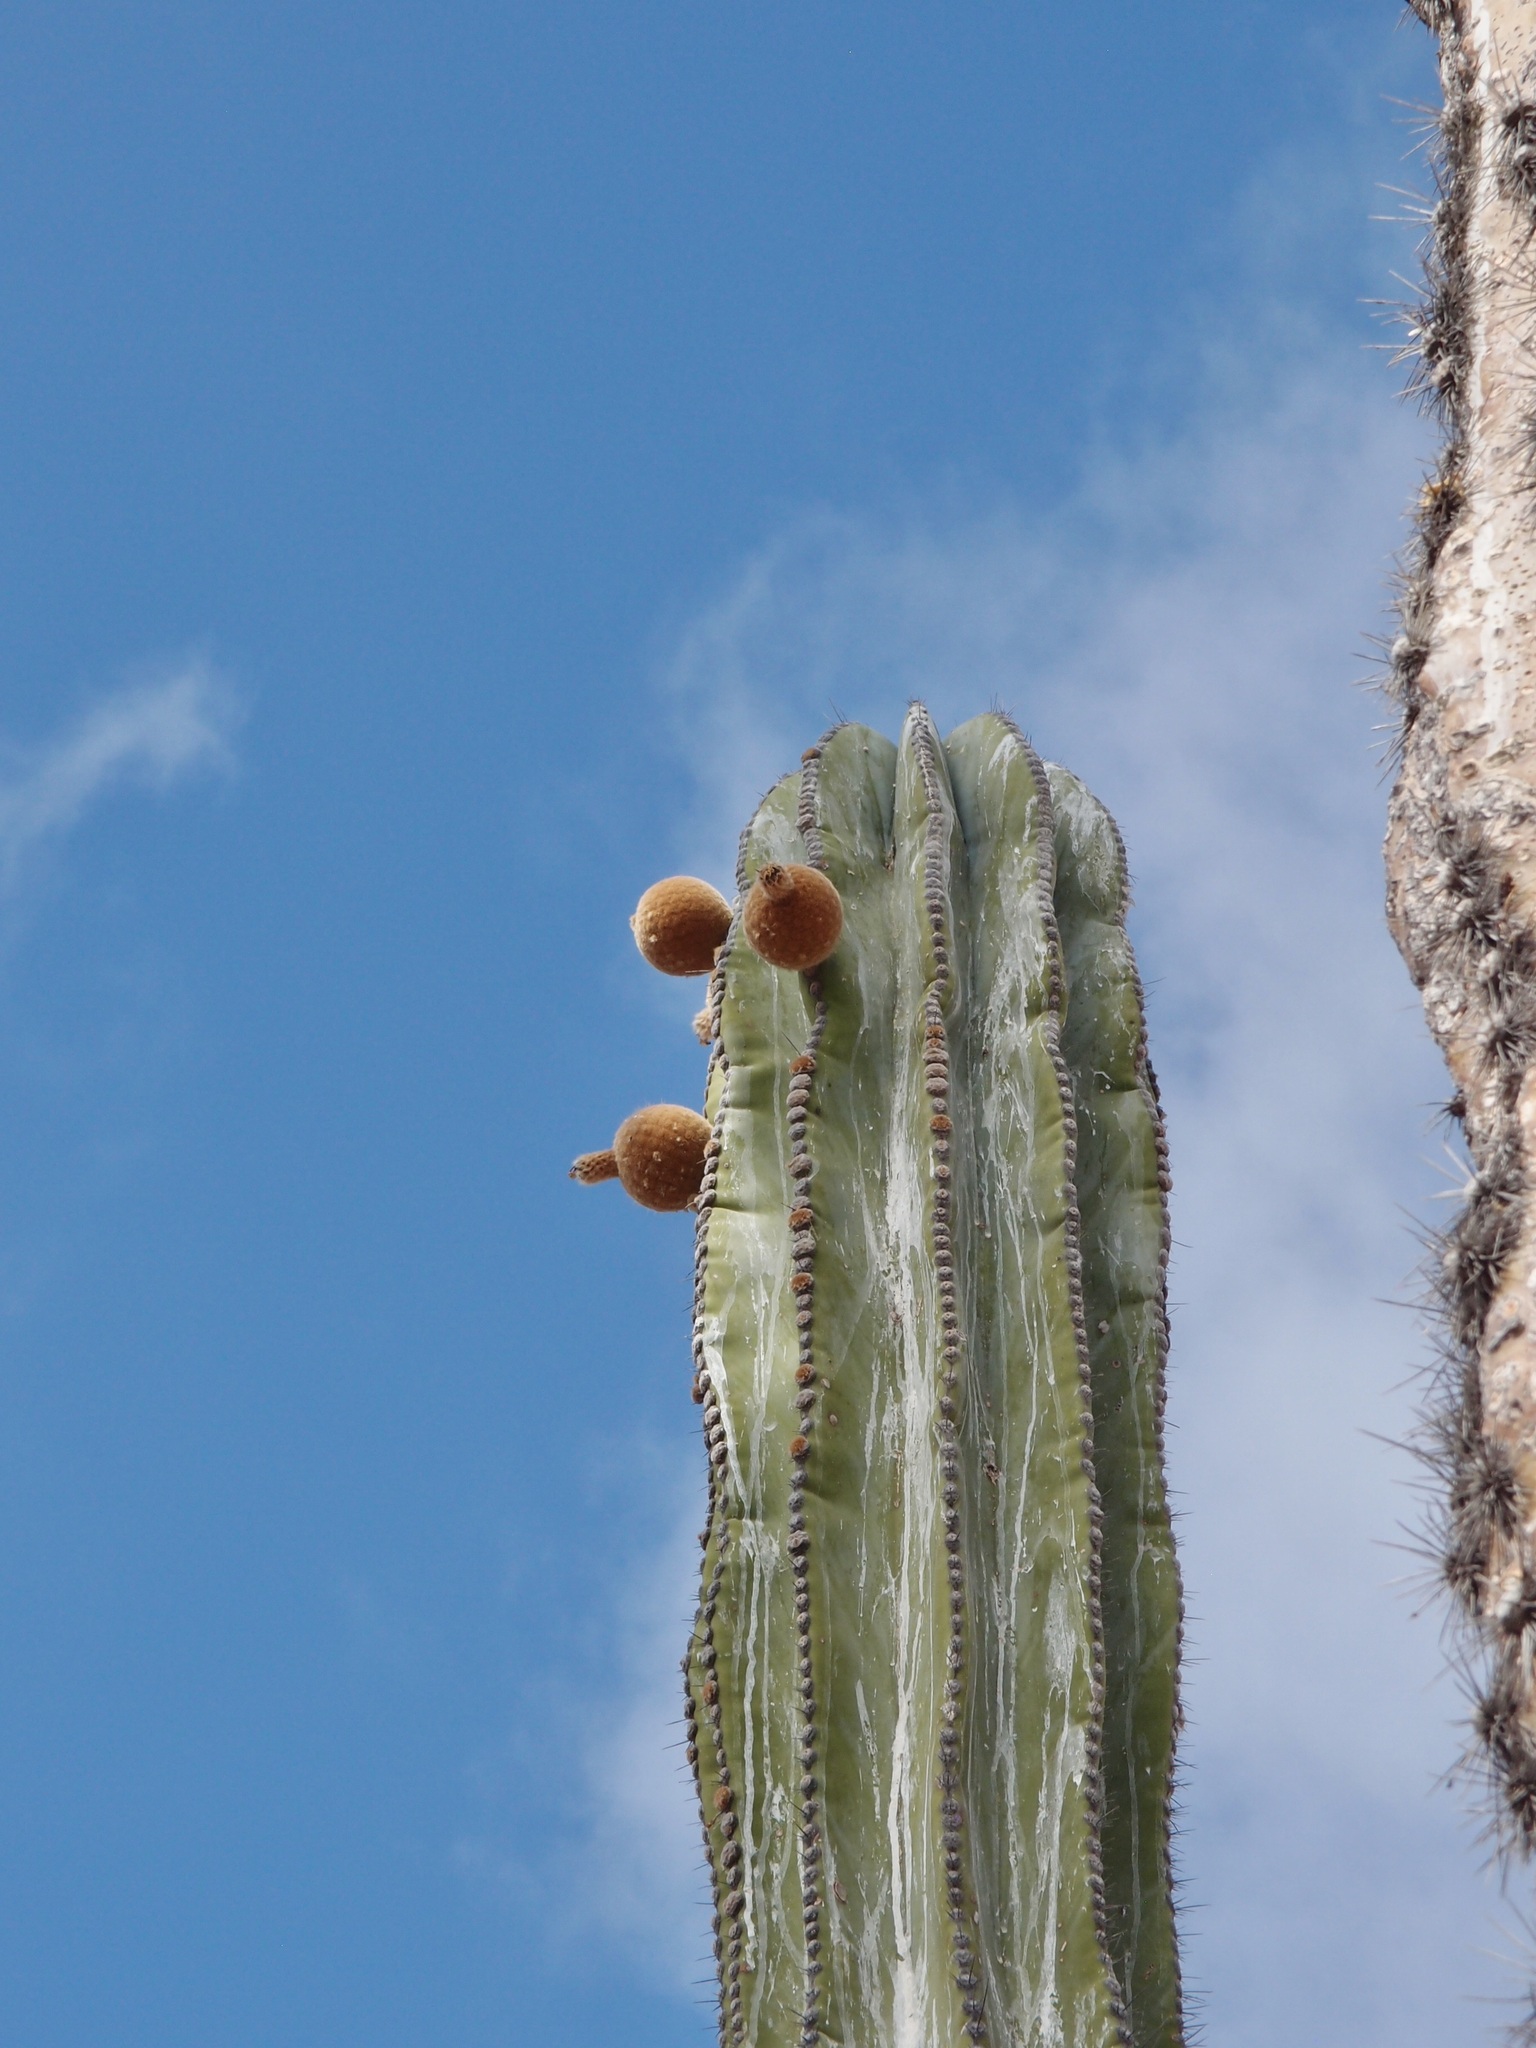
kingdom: Plantae
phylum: Tracheophyta
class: Magnoliopsida
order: Caryophyllales
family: Cactaceae
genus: Pachycereus
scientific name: Pachycereus pringlei
